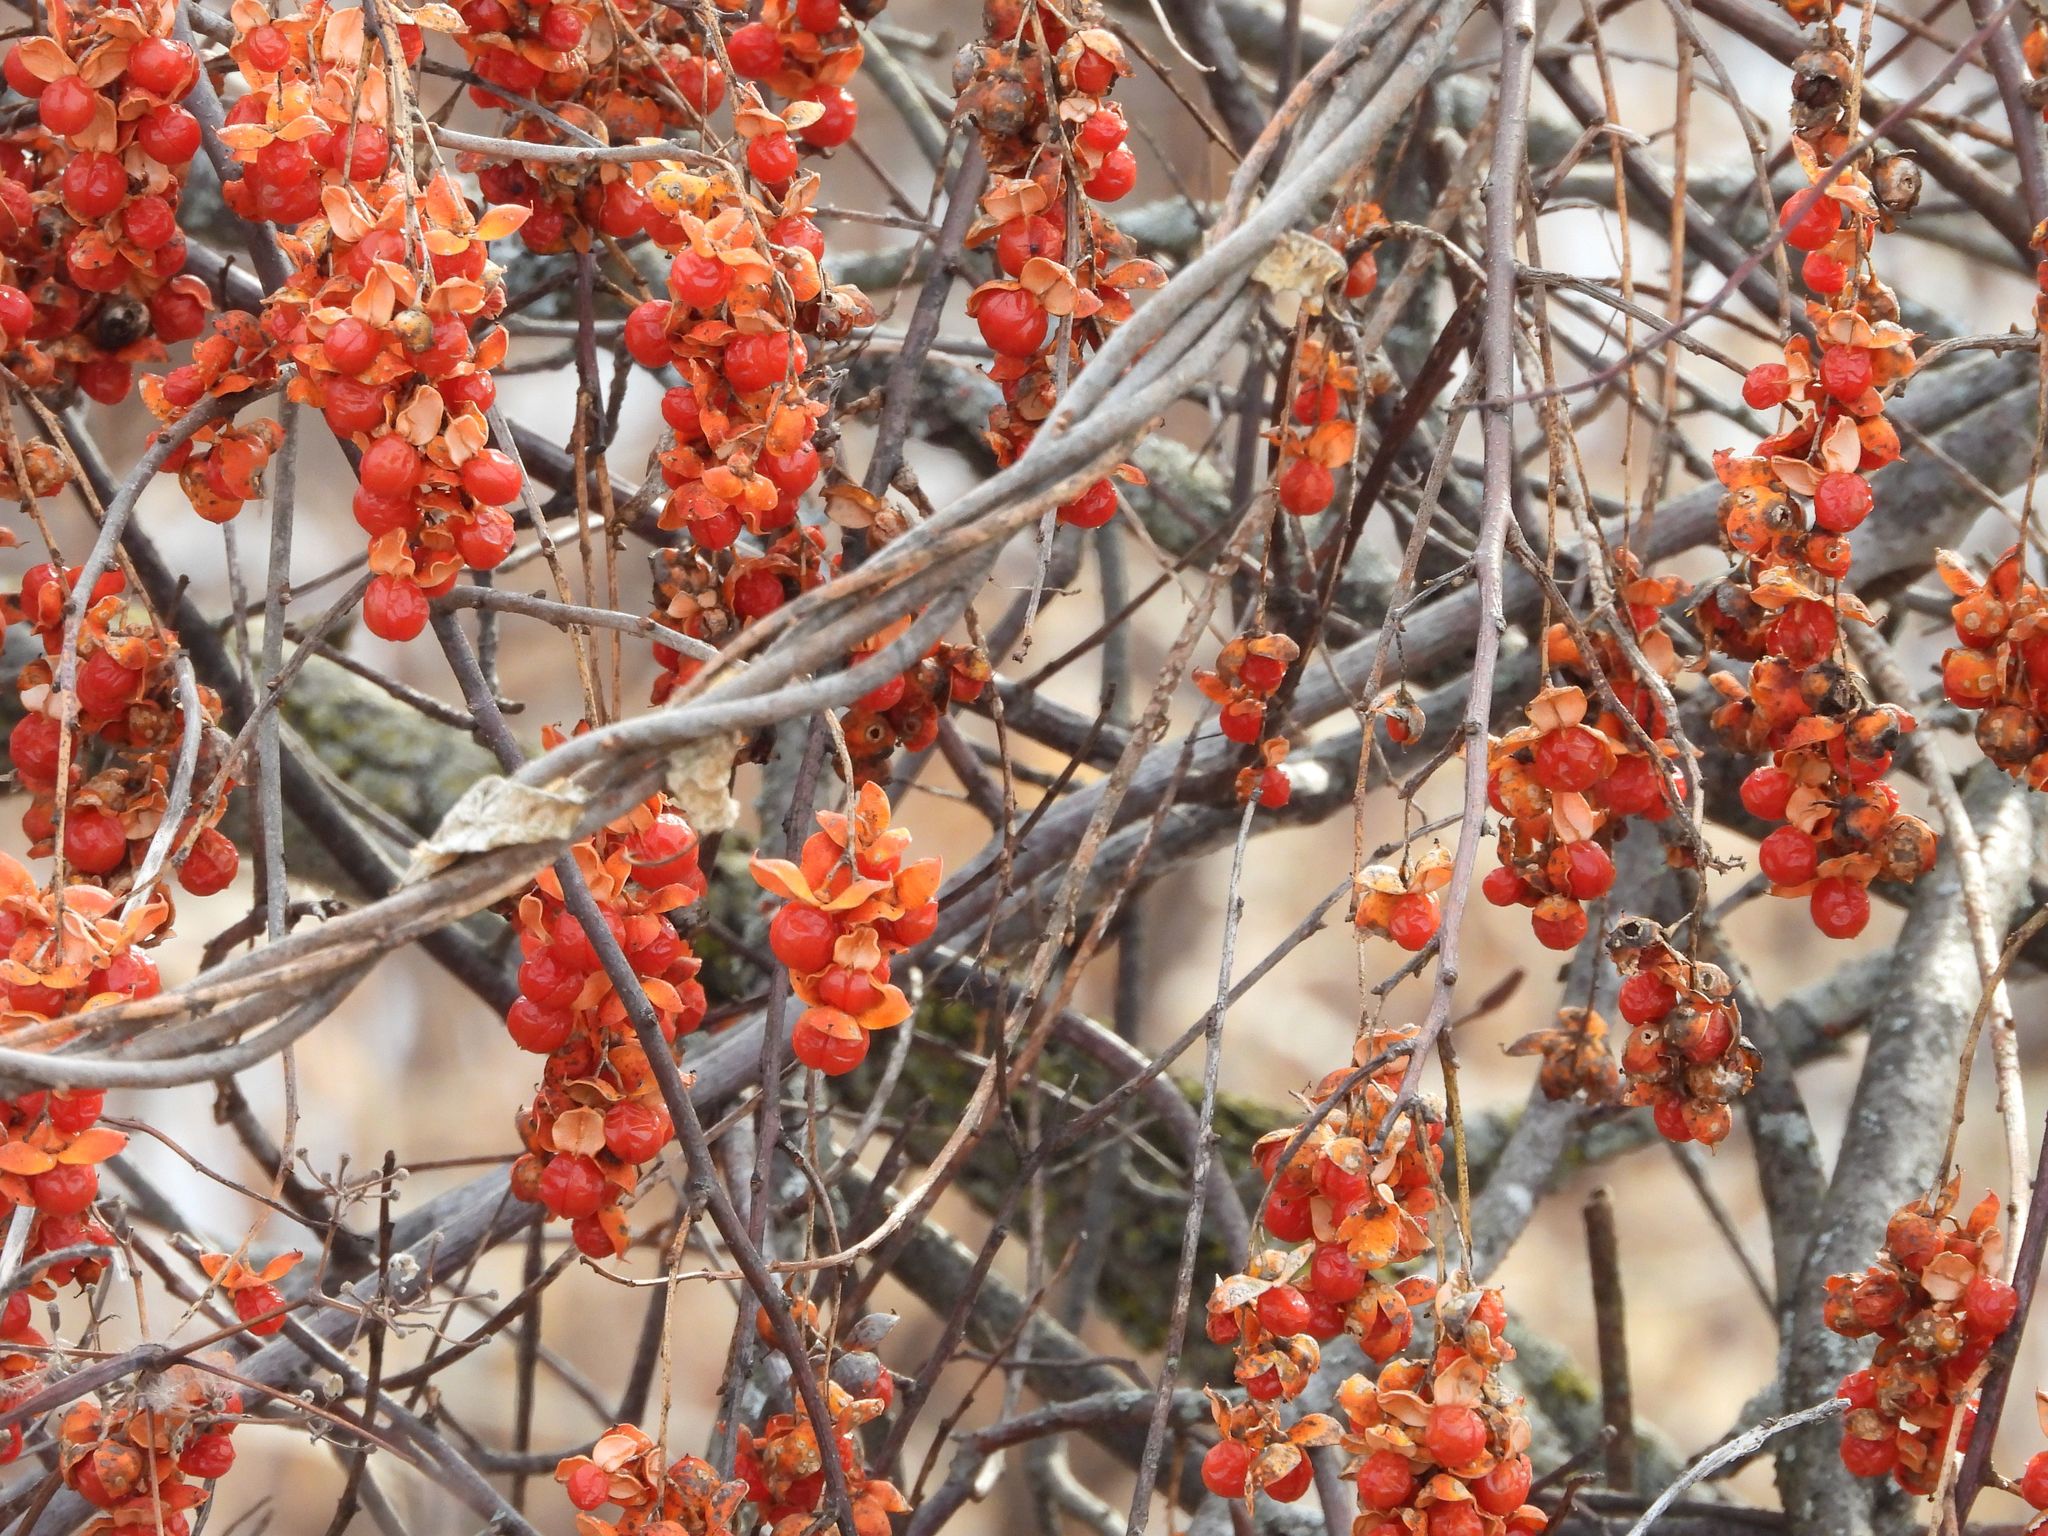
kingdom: Plantae
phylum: Tracheophyta
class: Magnoliopsida
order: Celastrales
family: Celastraceae
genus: Celastrus
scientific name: Celastrus scandens
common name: American bittersweet
